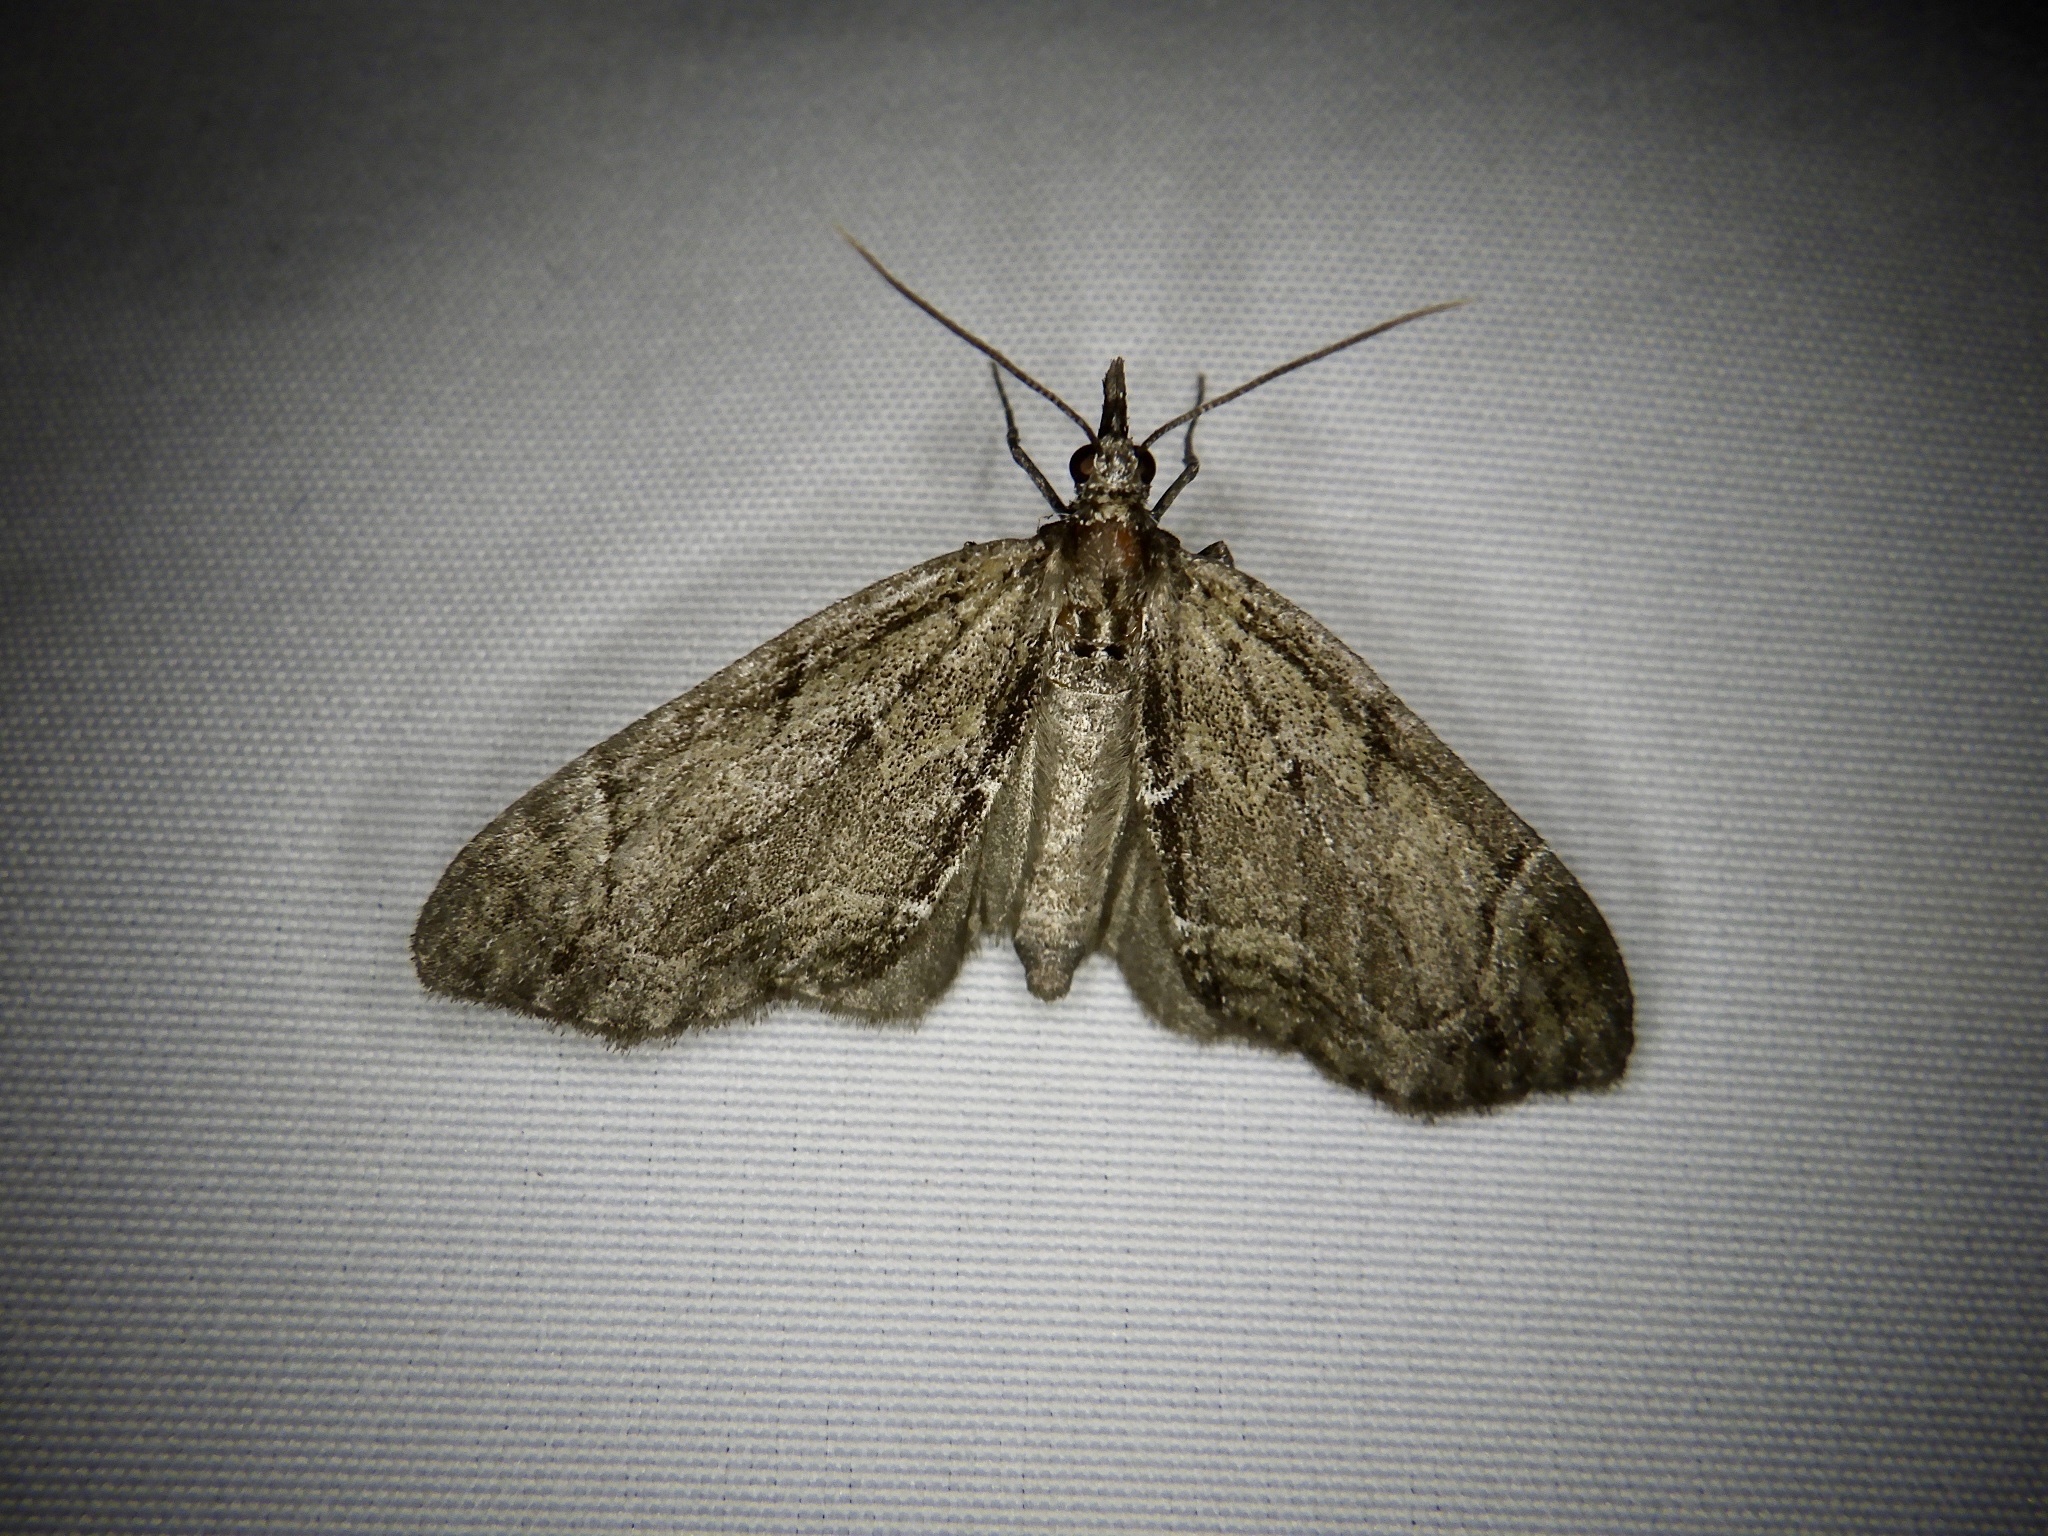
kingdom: Animalia
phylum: Arthropoda
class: Insecta
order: Lepidoptera
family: Geometridae
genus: Lobophorodes
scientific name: Lobophorodes
